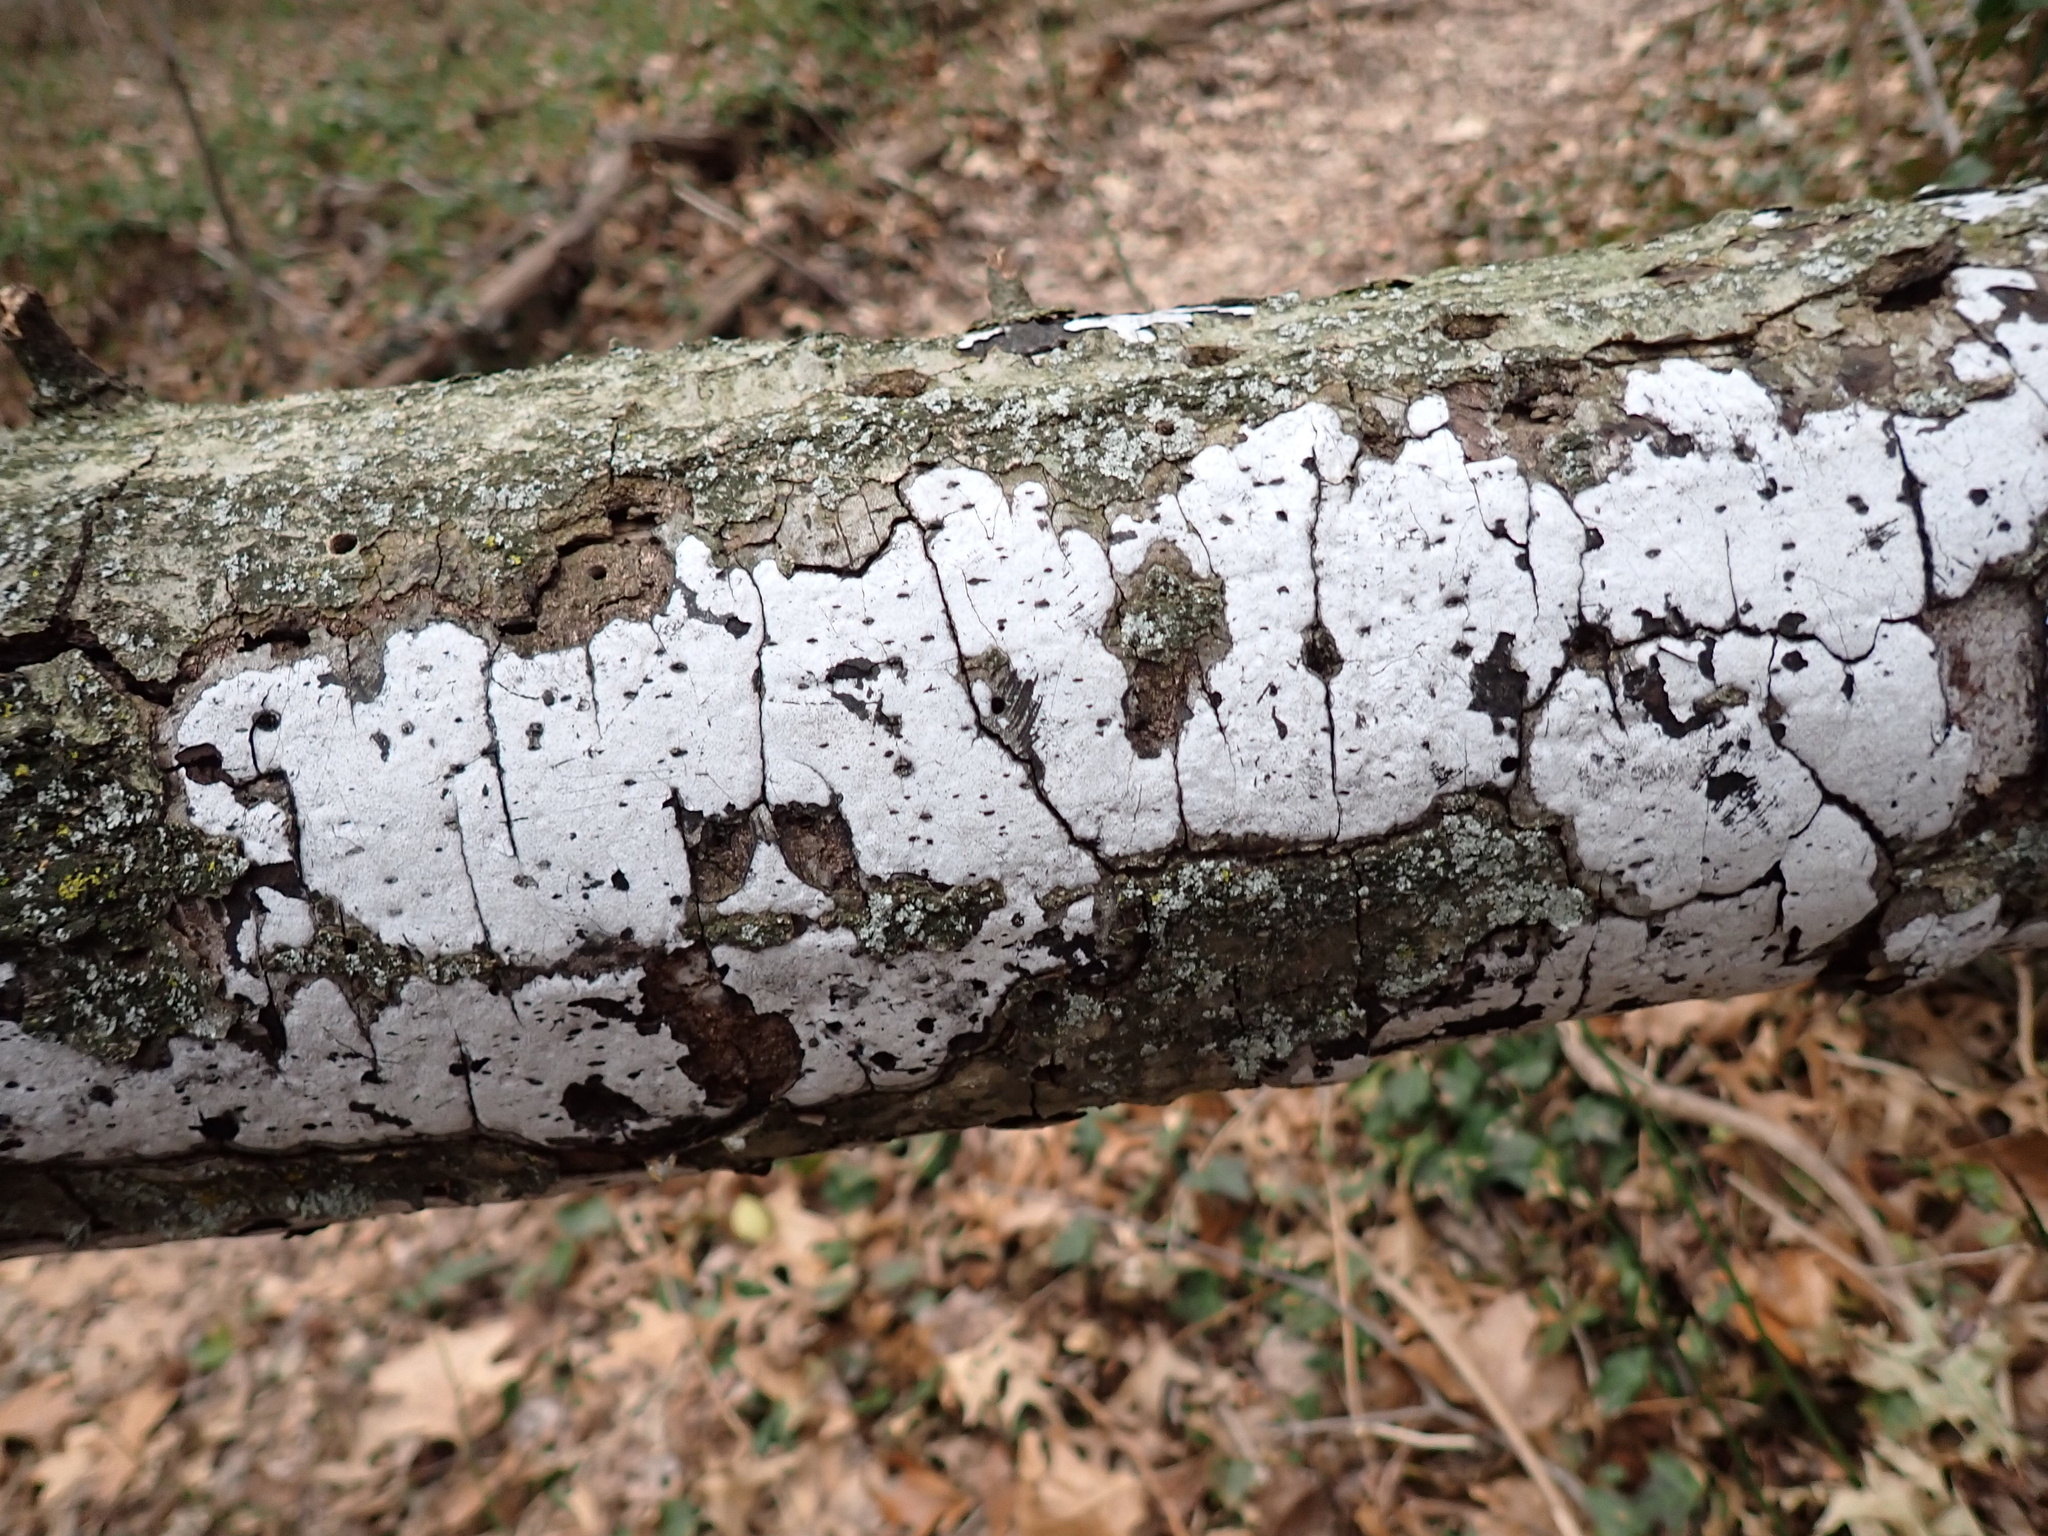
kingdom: Fungi
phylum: Ascomycota
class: Sordariomycetes
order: Xylariales
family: Graphostromataceae
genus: Biscogniauxia
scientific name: Biscogniauxia atropunctata
